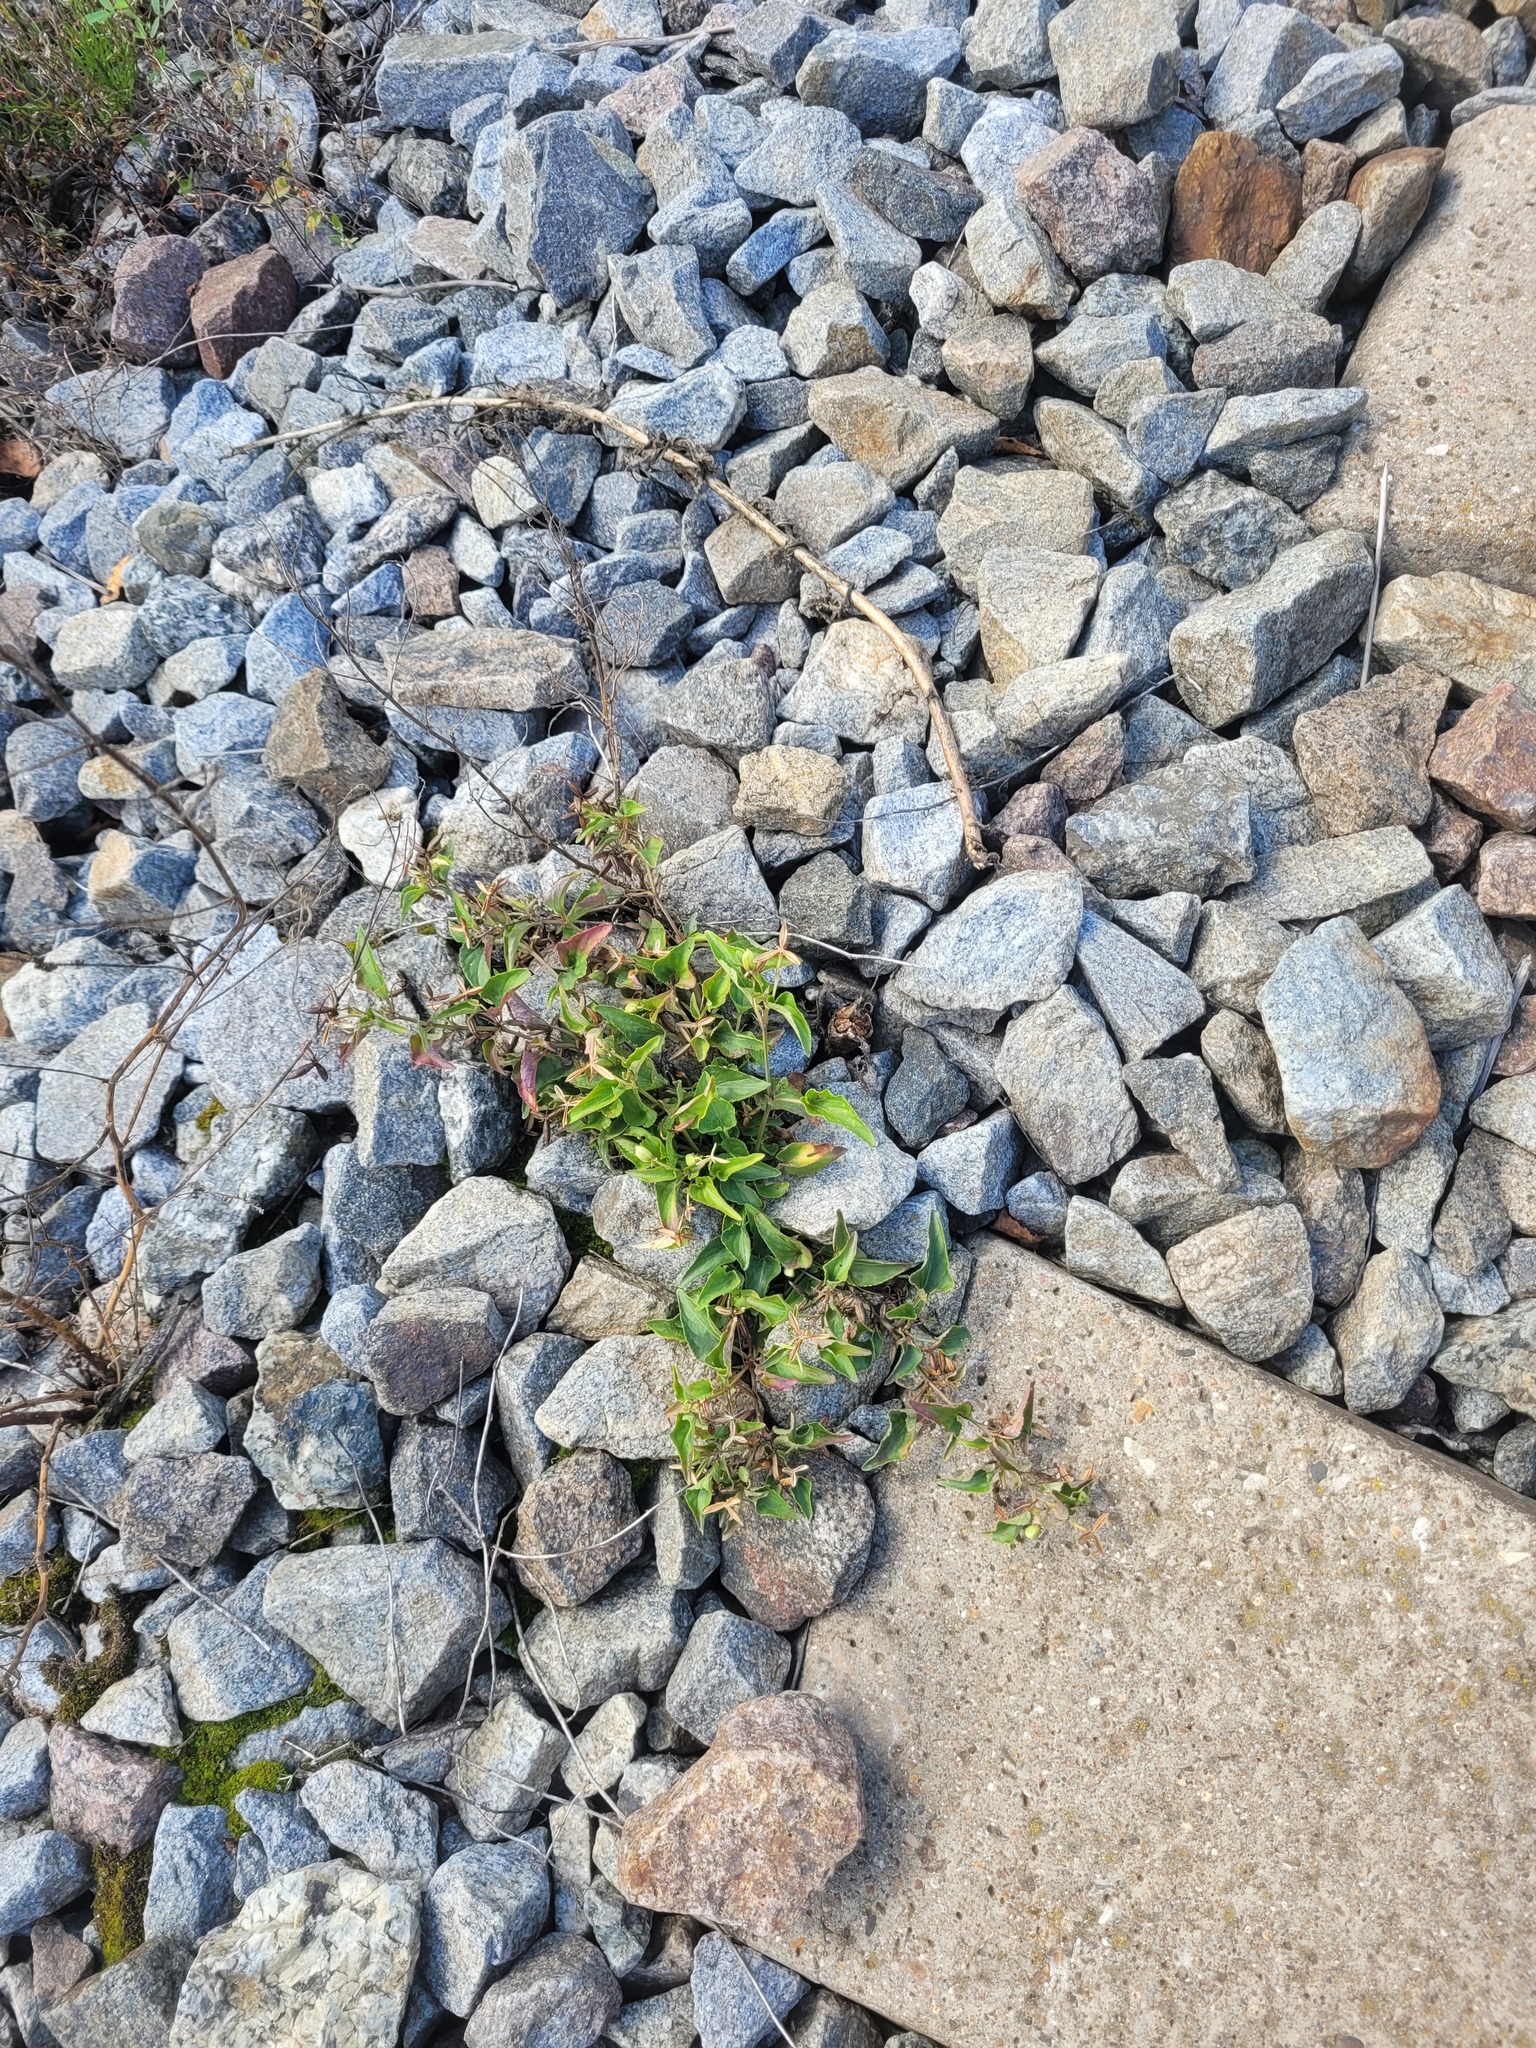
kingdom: Plantae
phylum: Tracheophyta
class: Magnoliopsida
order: Malpighiales
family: Violaceae
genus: Viola
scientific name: Viola canina
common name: Heath dog-violet
